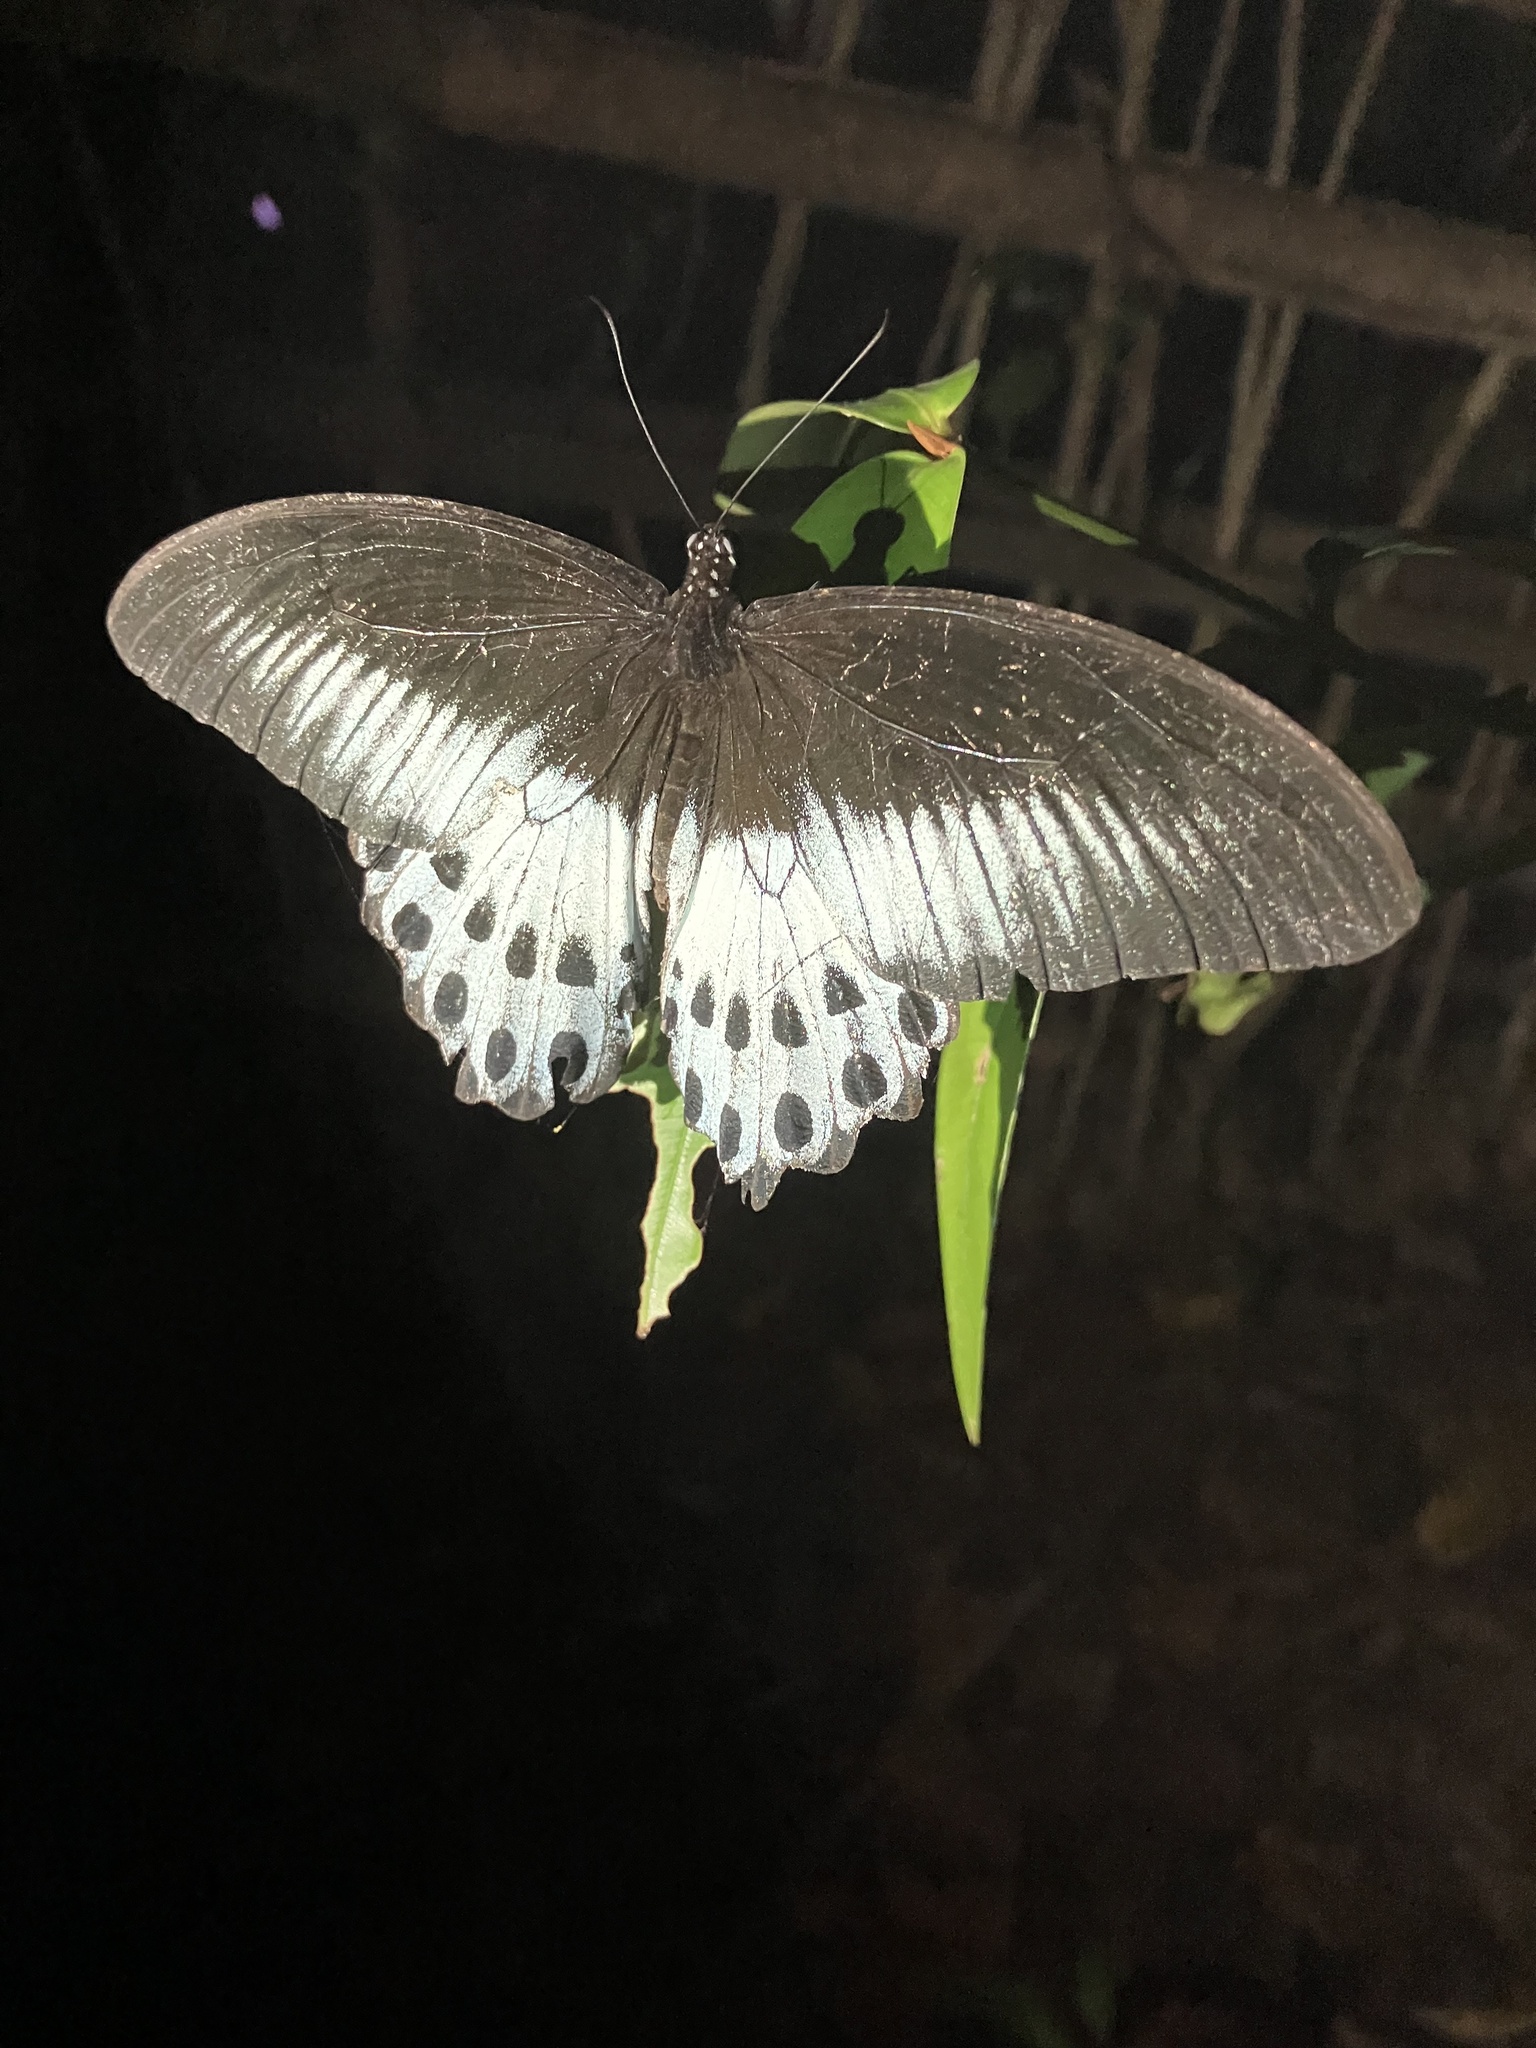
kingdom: Animalia
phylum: Arthropoda
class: Insecta
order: Lepidoptera
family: Papilionidae
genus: Papilio
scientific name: Papilio memnon
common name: Great mormon
